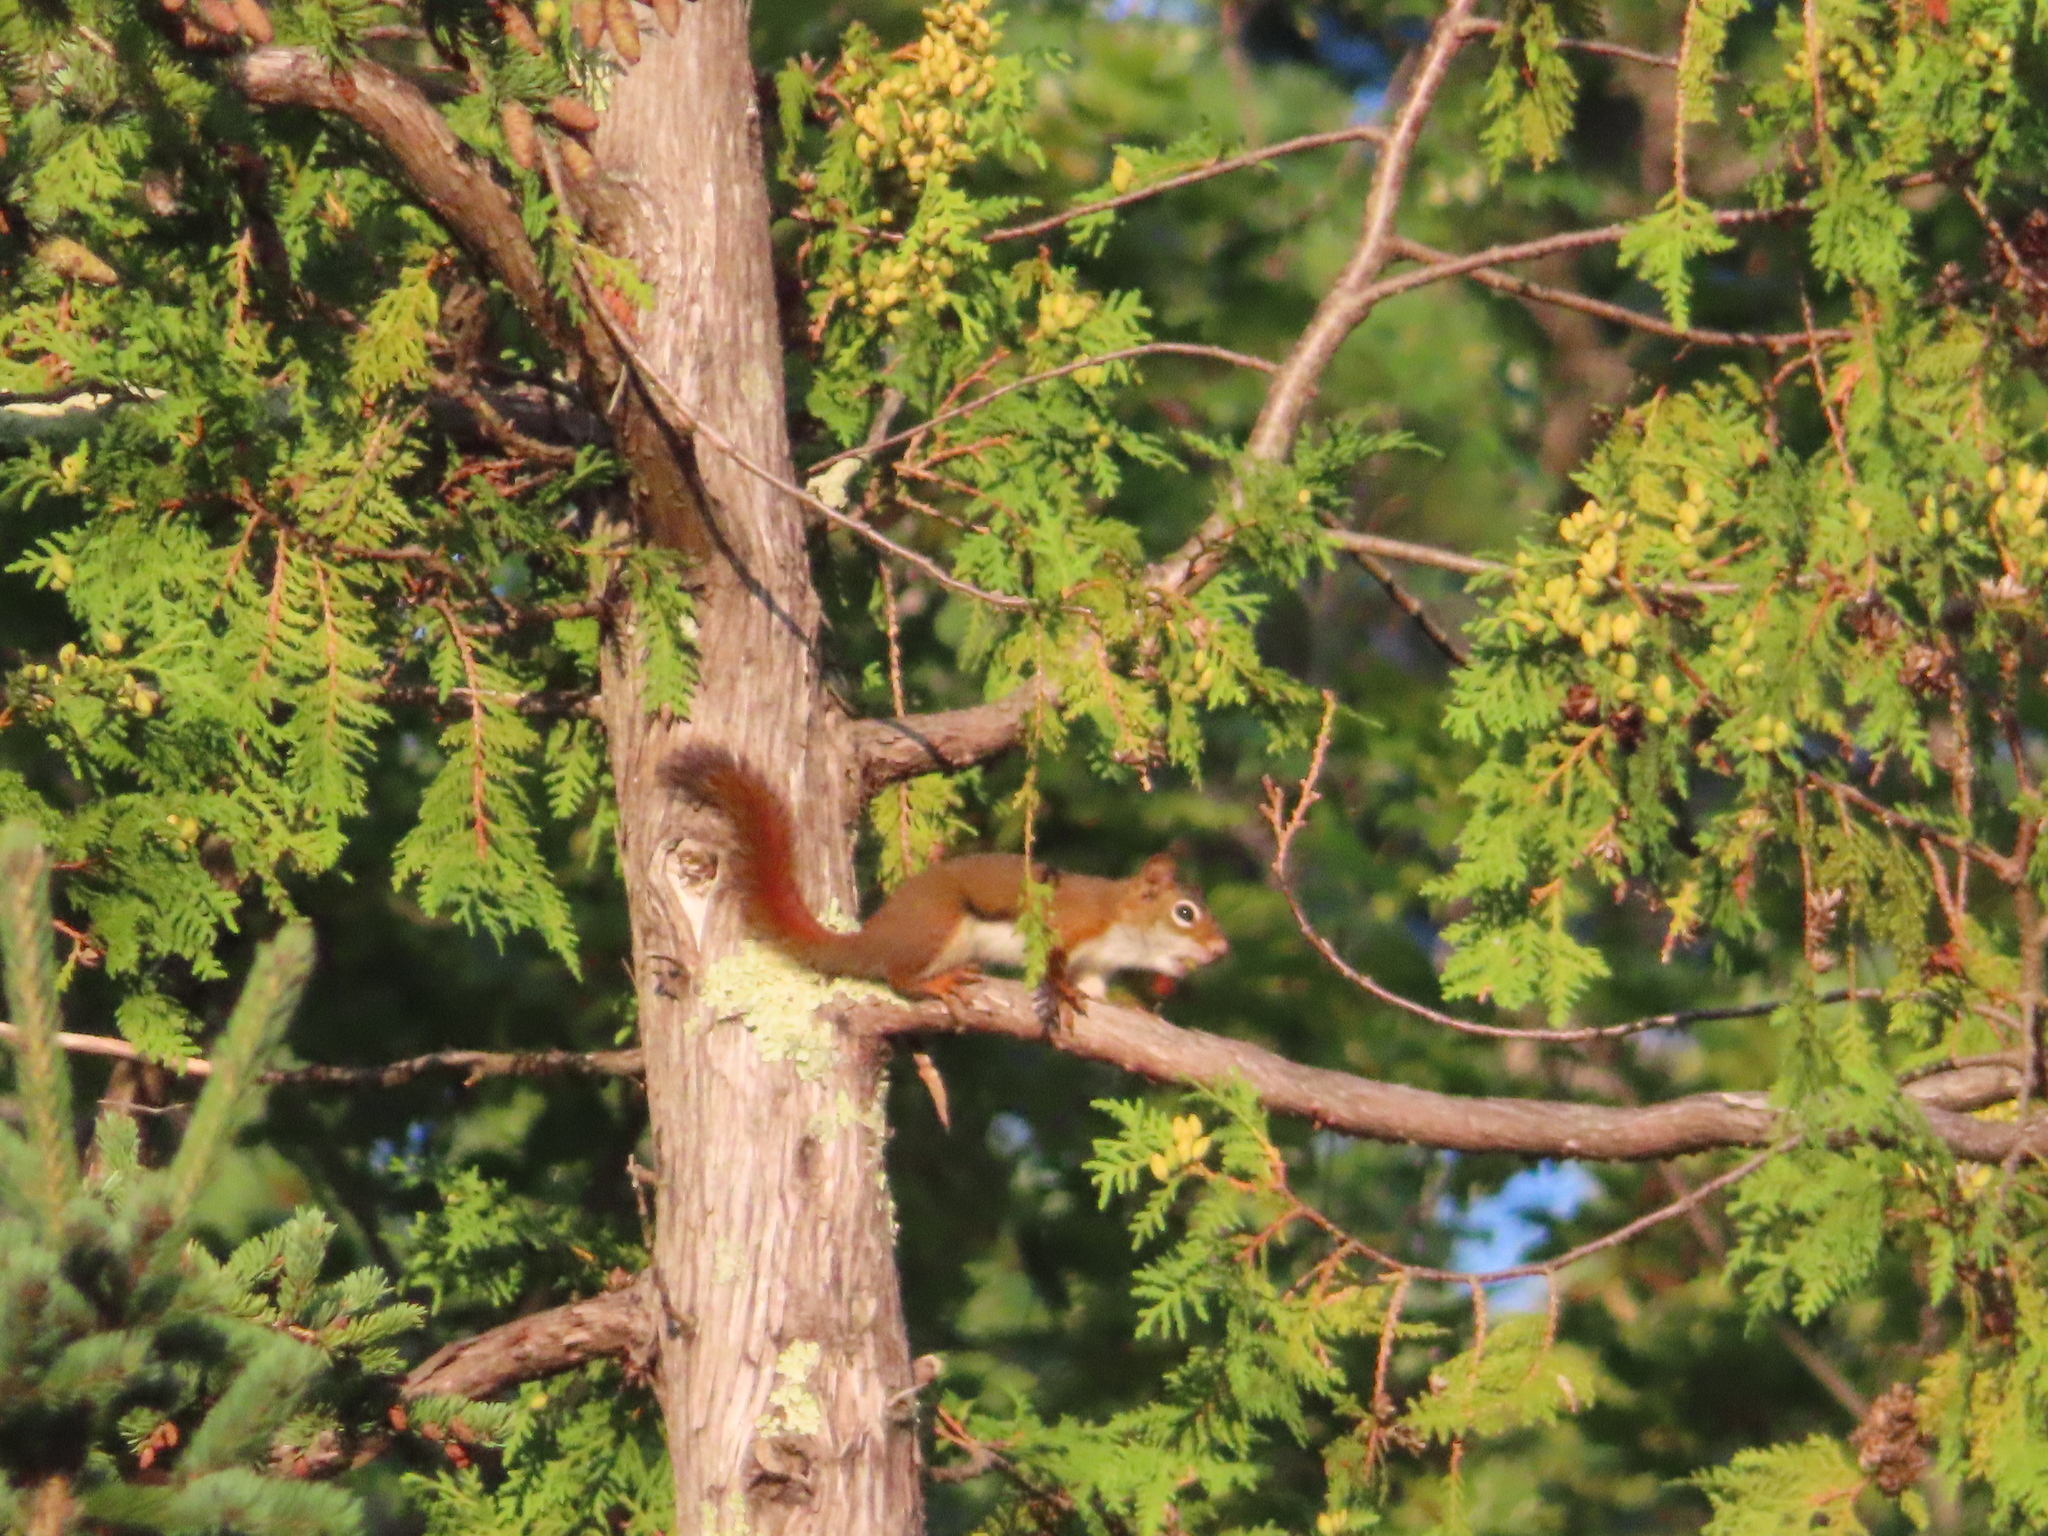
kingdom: Animalia
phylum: Chordata
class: Mammalia
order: Rodentia
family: Sciuridae
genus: Tamiasciurus
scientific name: Tamiasciurus hudsonicus
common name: Red squirrel
